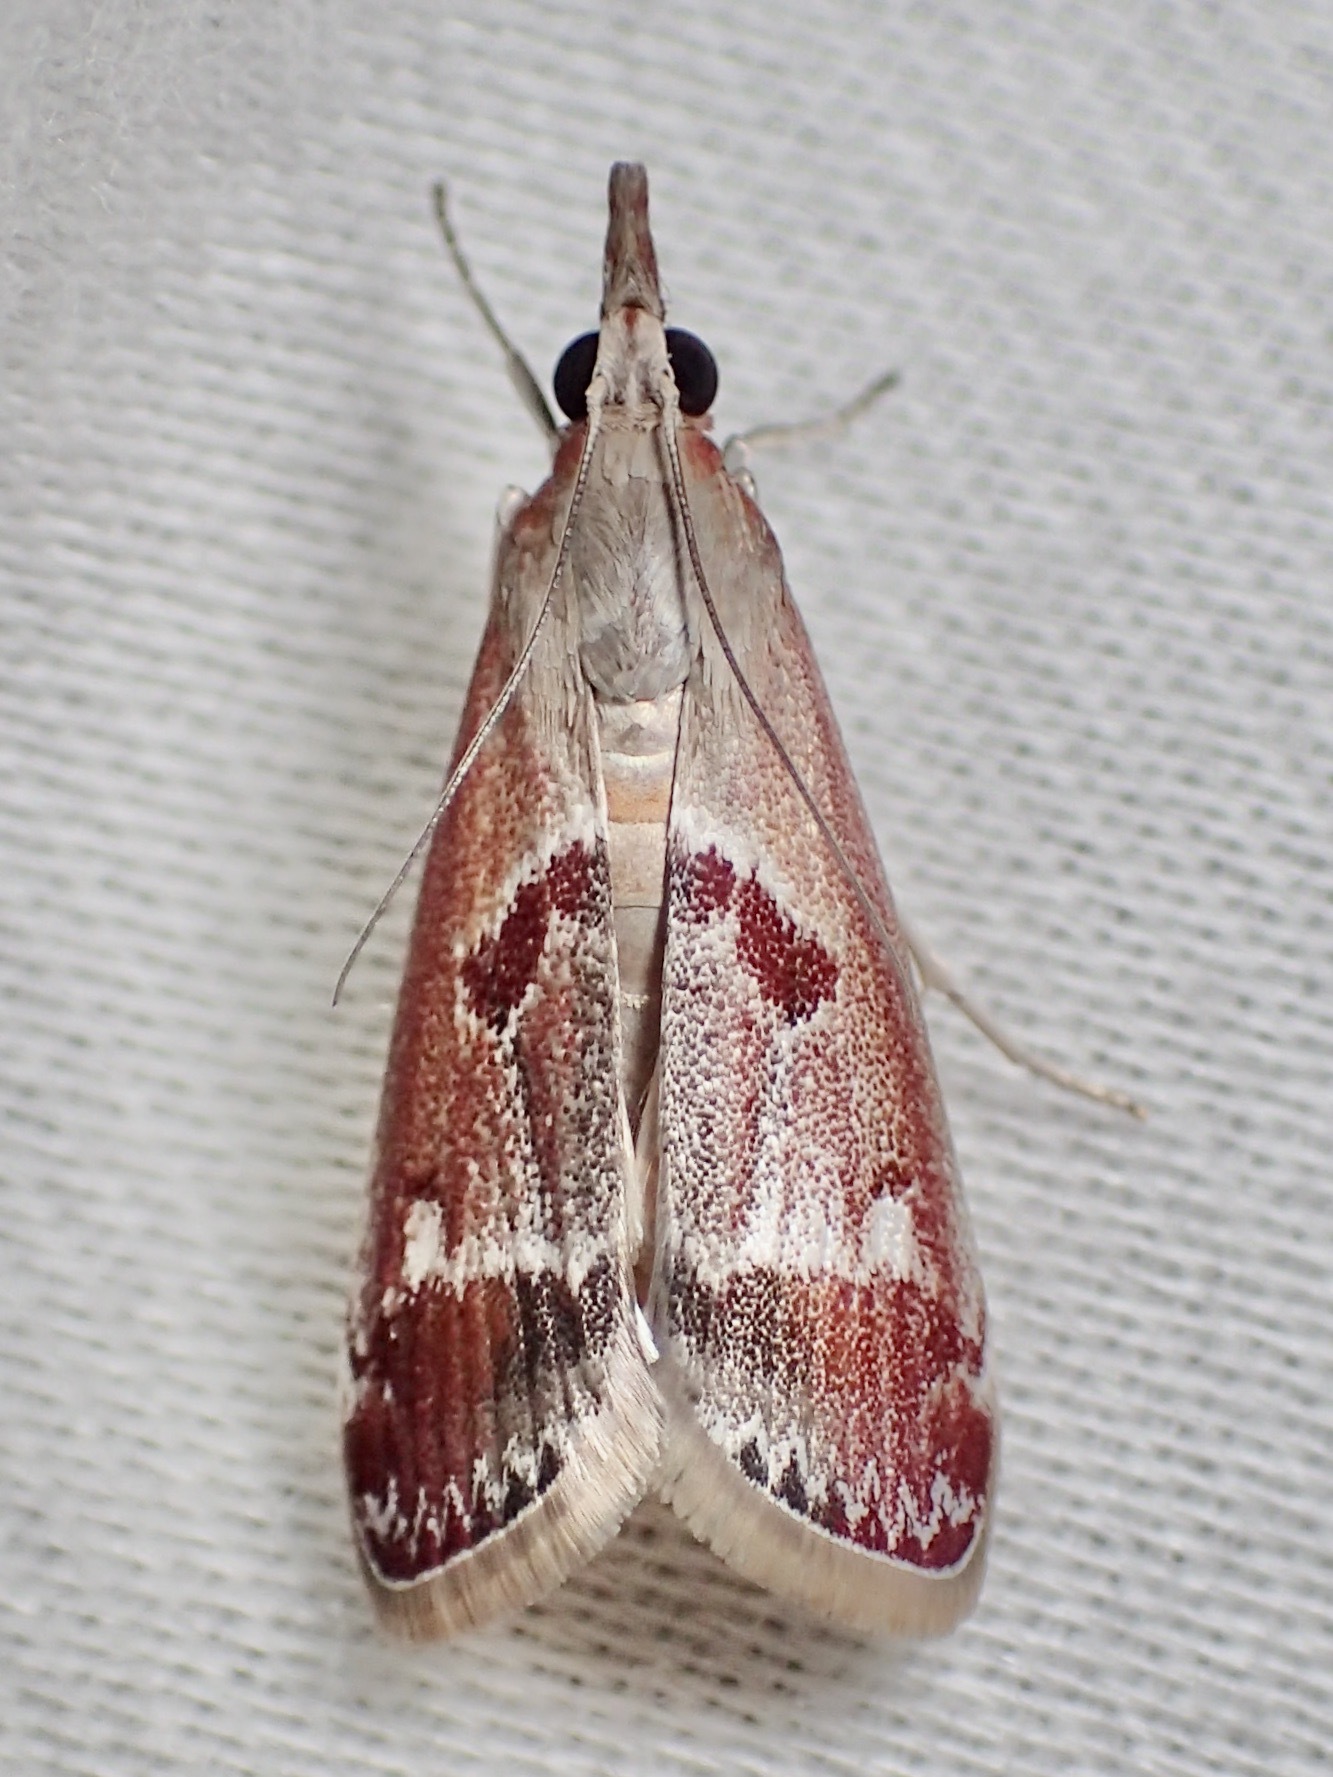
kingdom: Animalia
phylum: Arthropoda
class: Insecta
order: Lepidoptera
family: Crambidae
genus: Syntonarcha
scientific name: Syntonarcha iriastis
